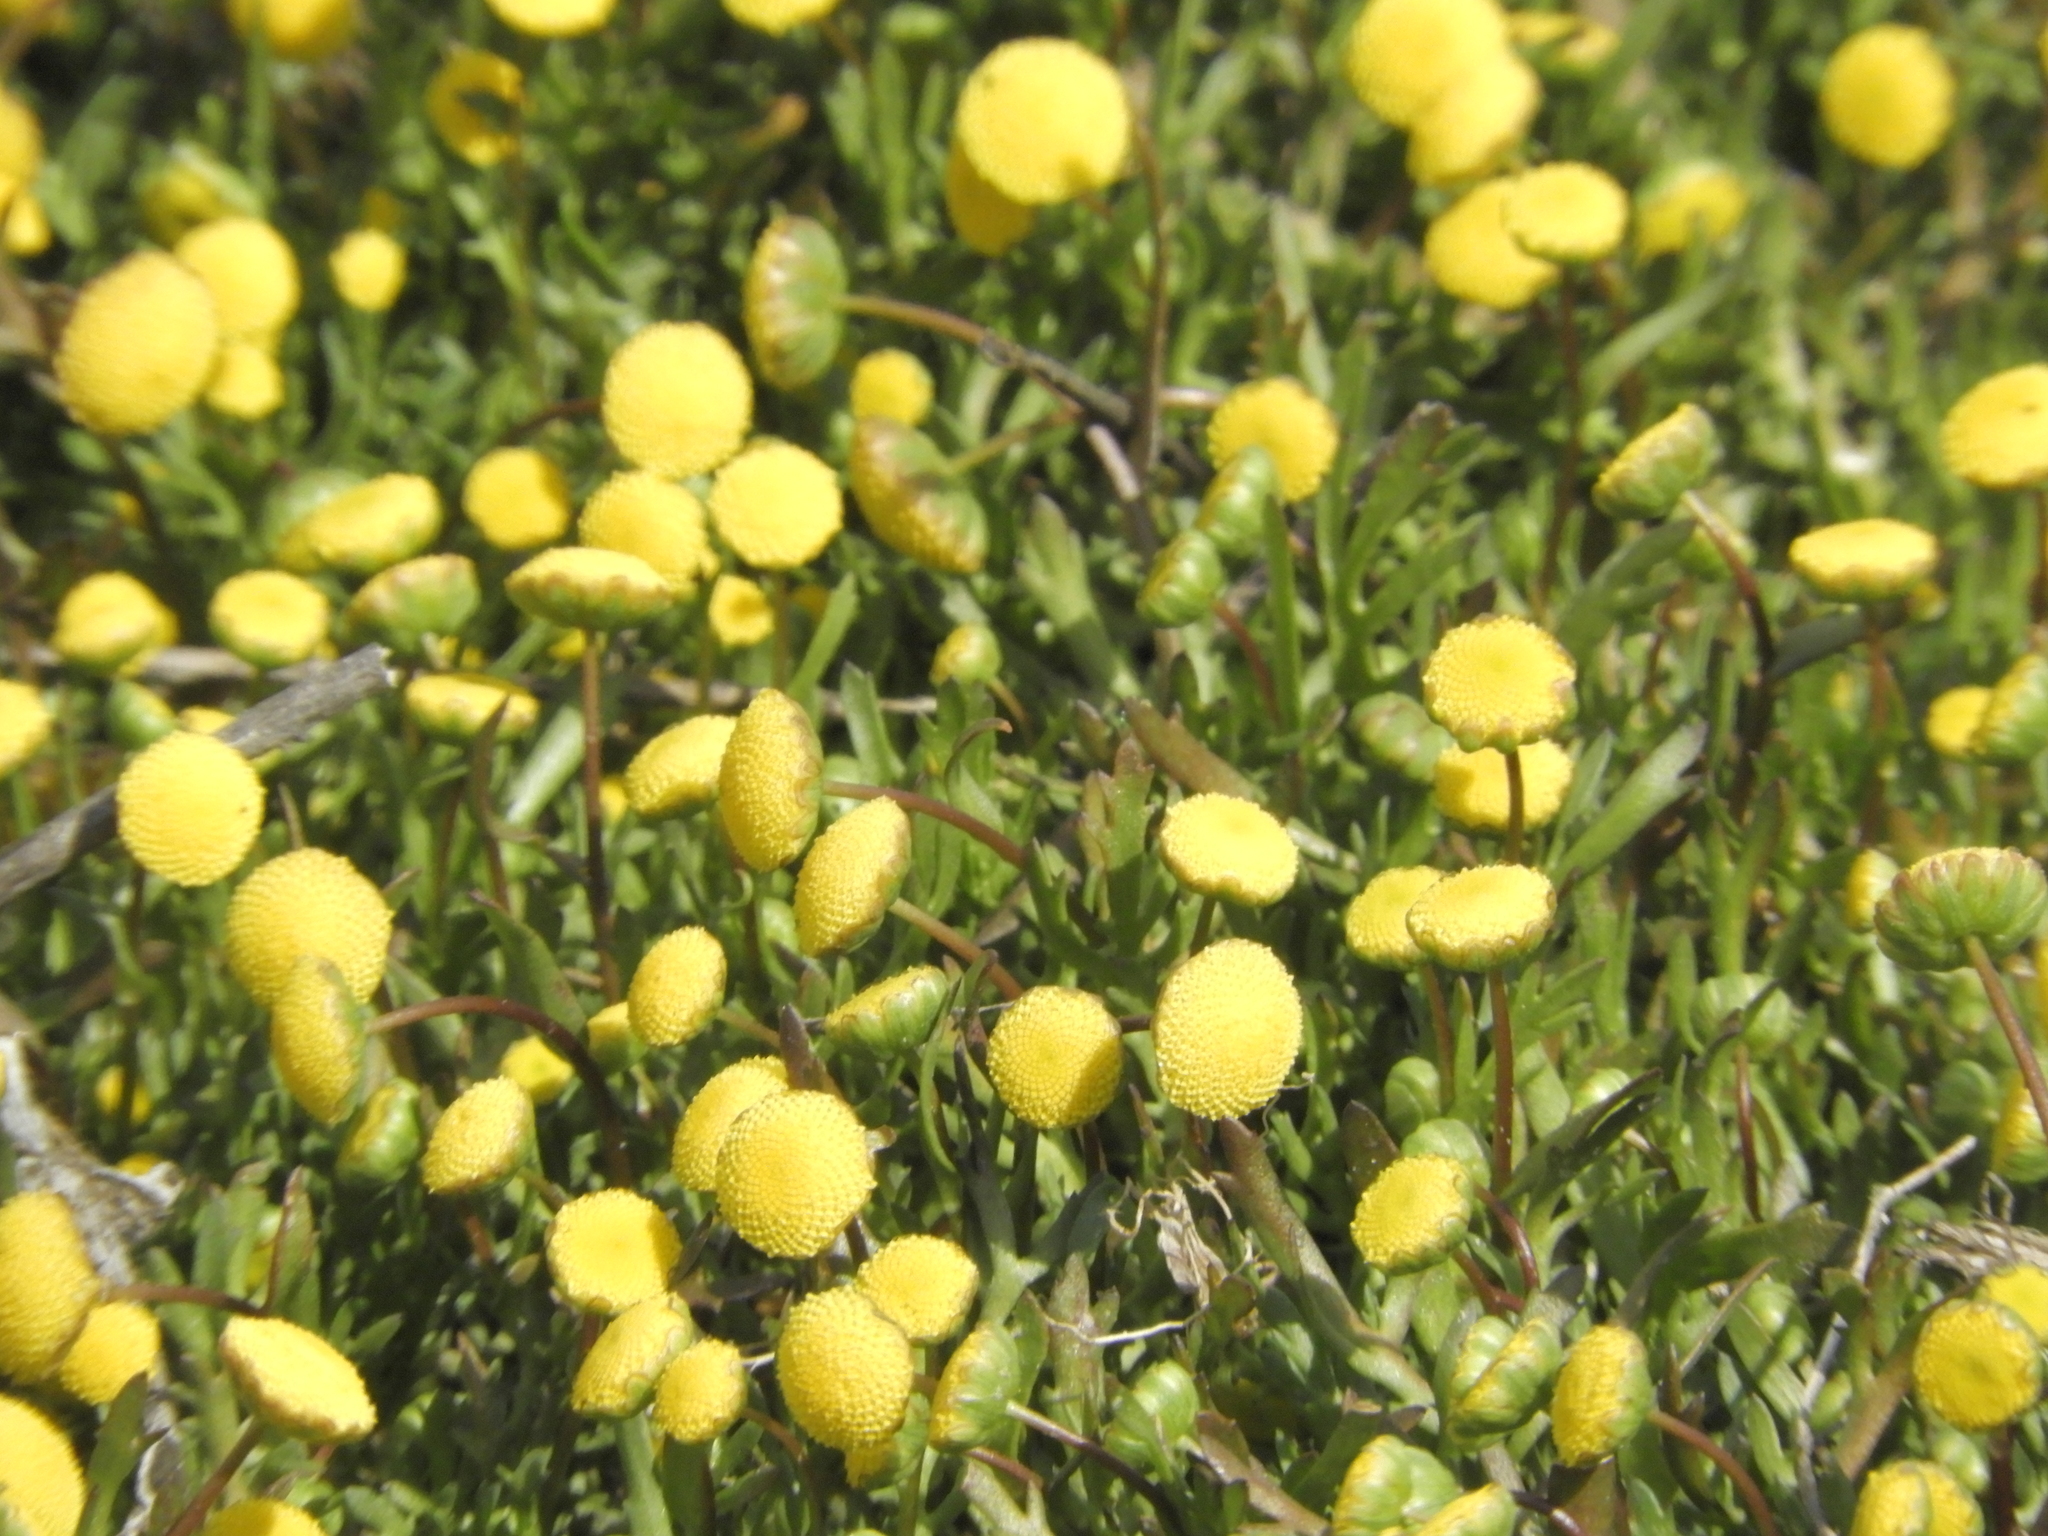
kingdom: Plantae
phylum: Tracheophyta
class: Magnoliopsida
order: Asterales
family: Asteraceae
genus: Cotula
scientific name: Cotula coronopifolia
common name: Buttonweed
